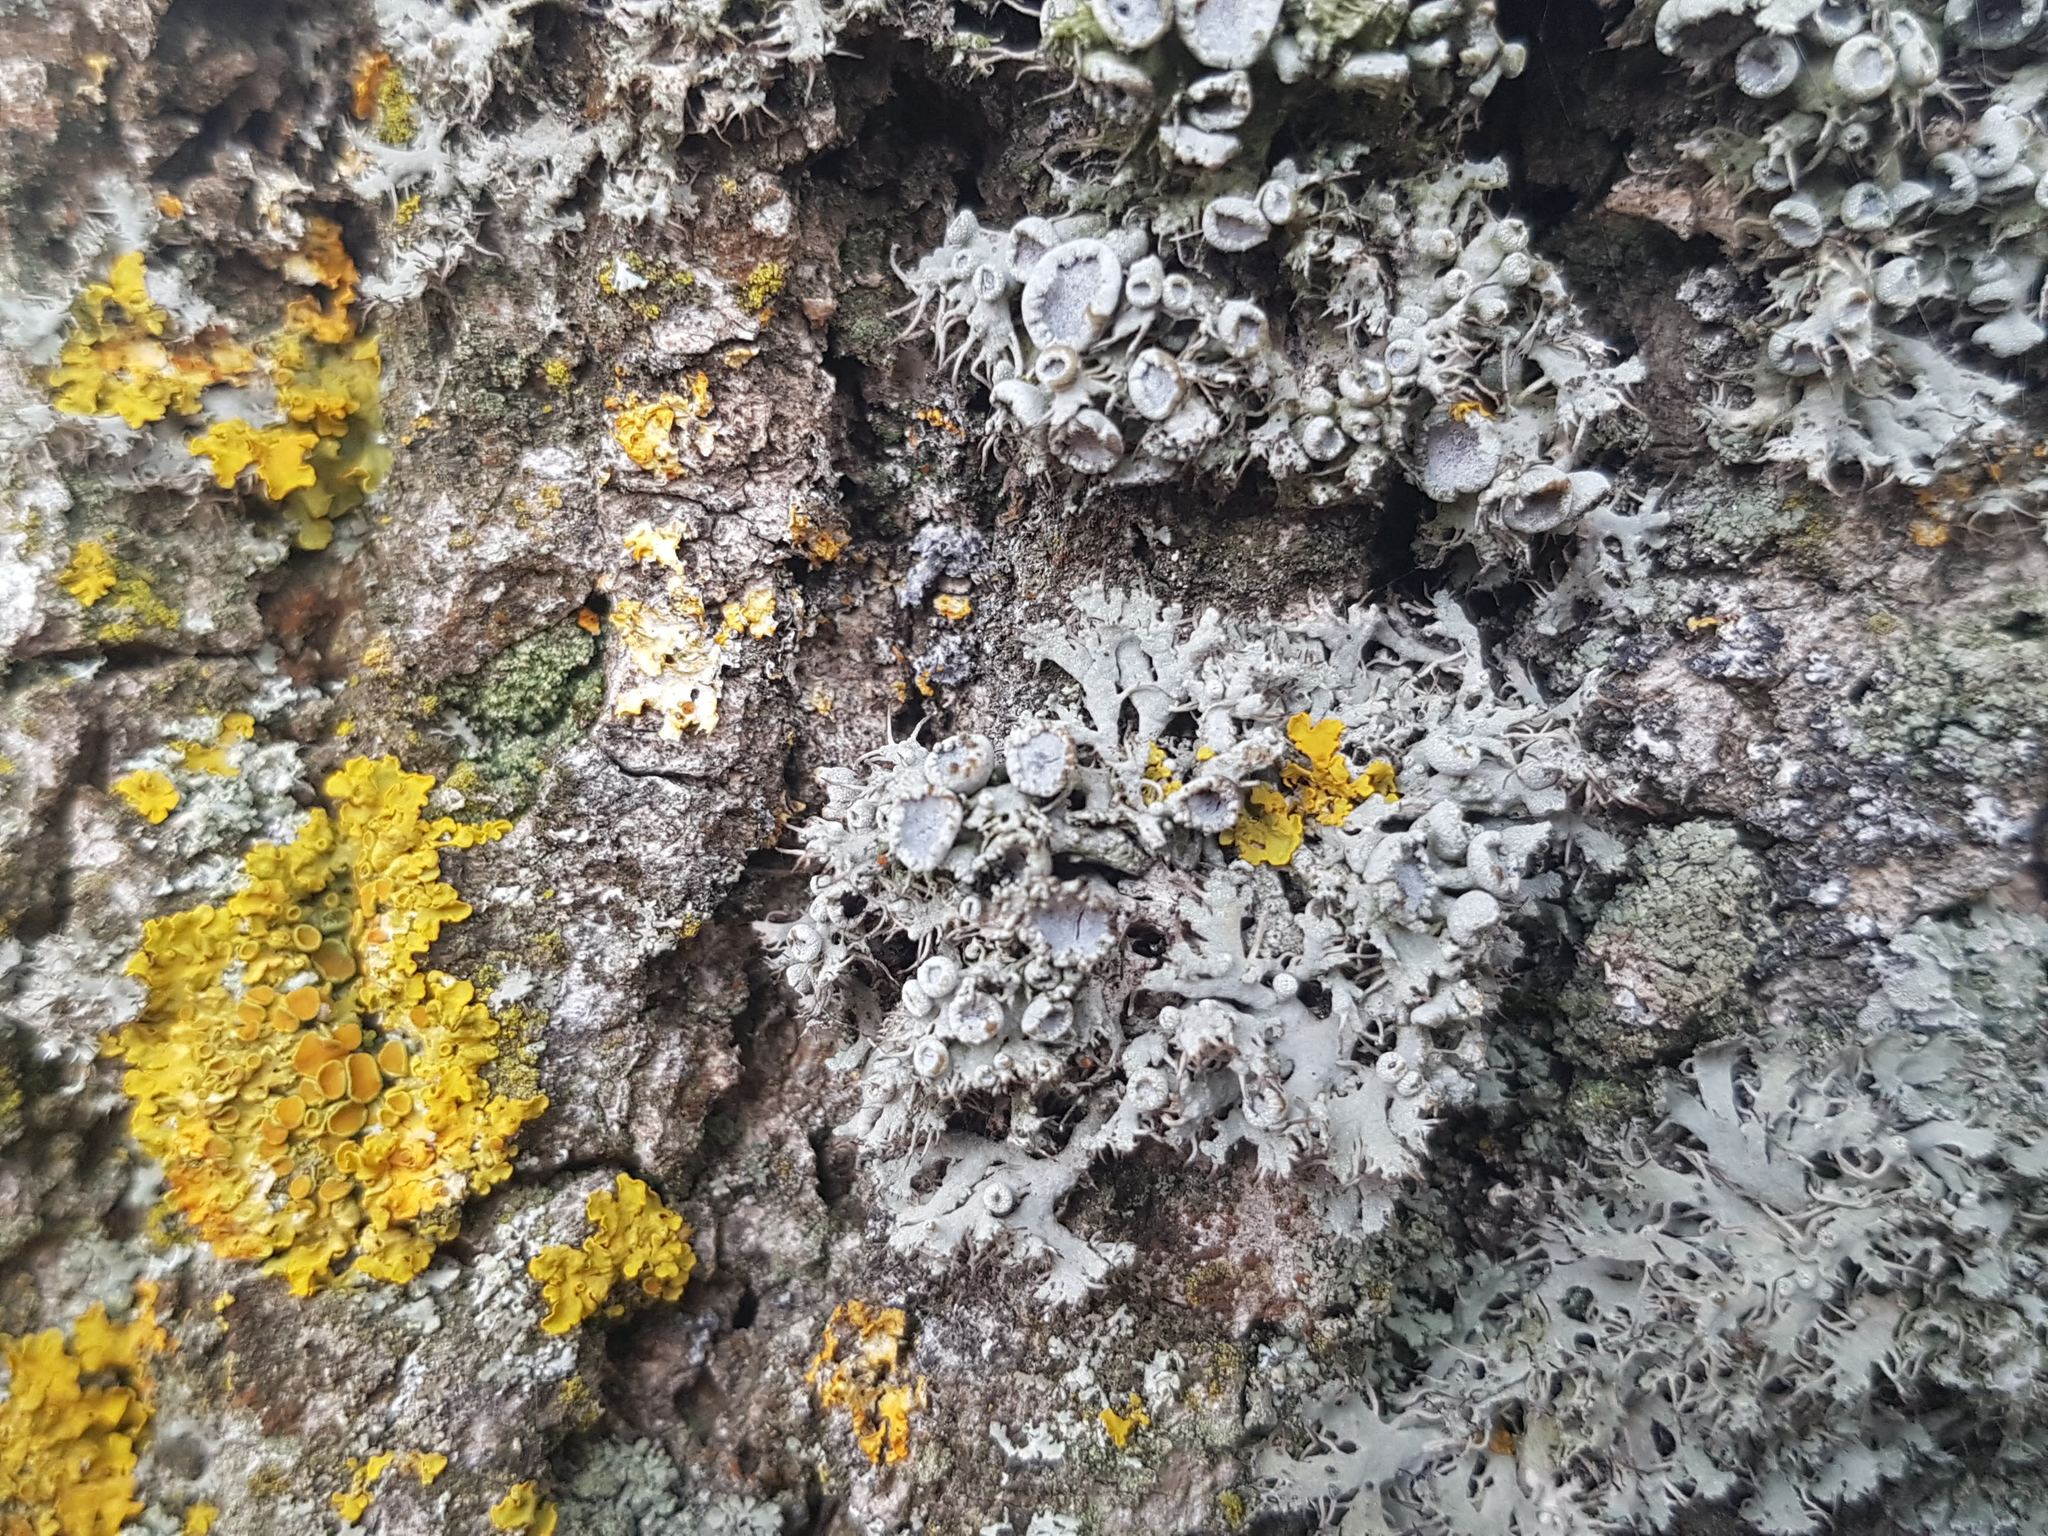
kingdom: Fungi
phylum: Ascomycota
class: Lecanoromycetes
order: Caliciales
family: Physciaceae
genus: Anaptychia
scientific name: Anaptychia ciliaris
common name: Great ciliated lichen
